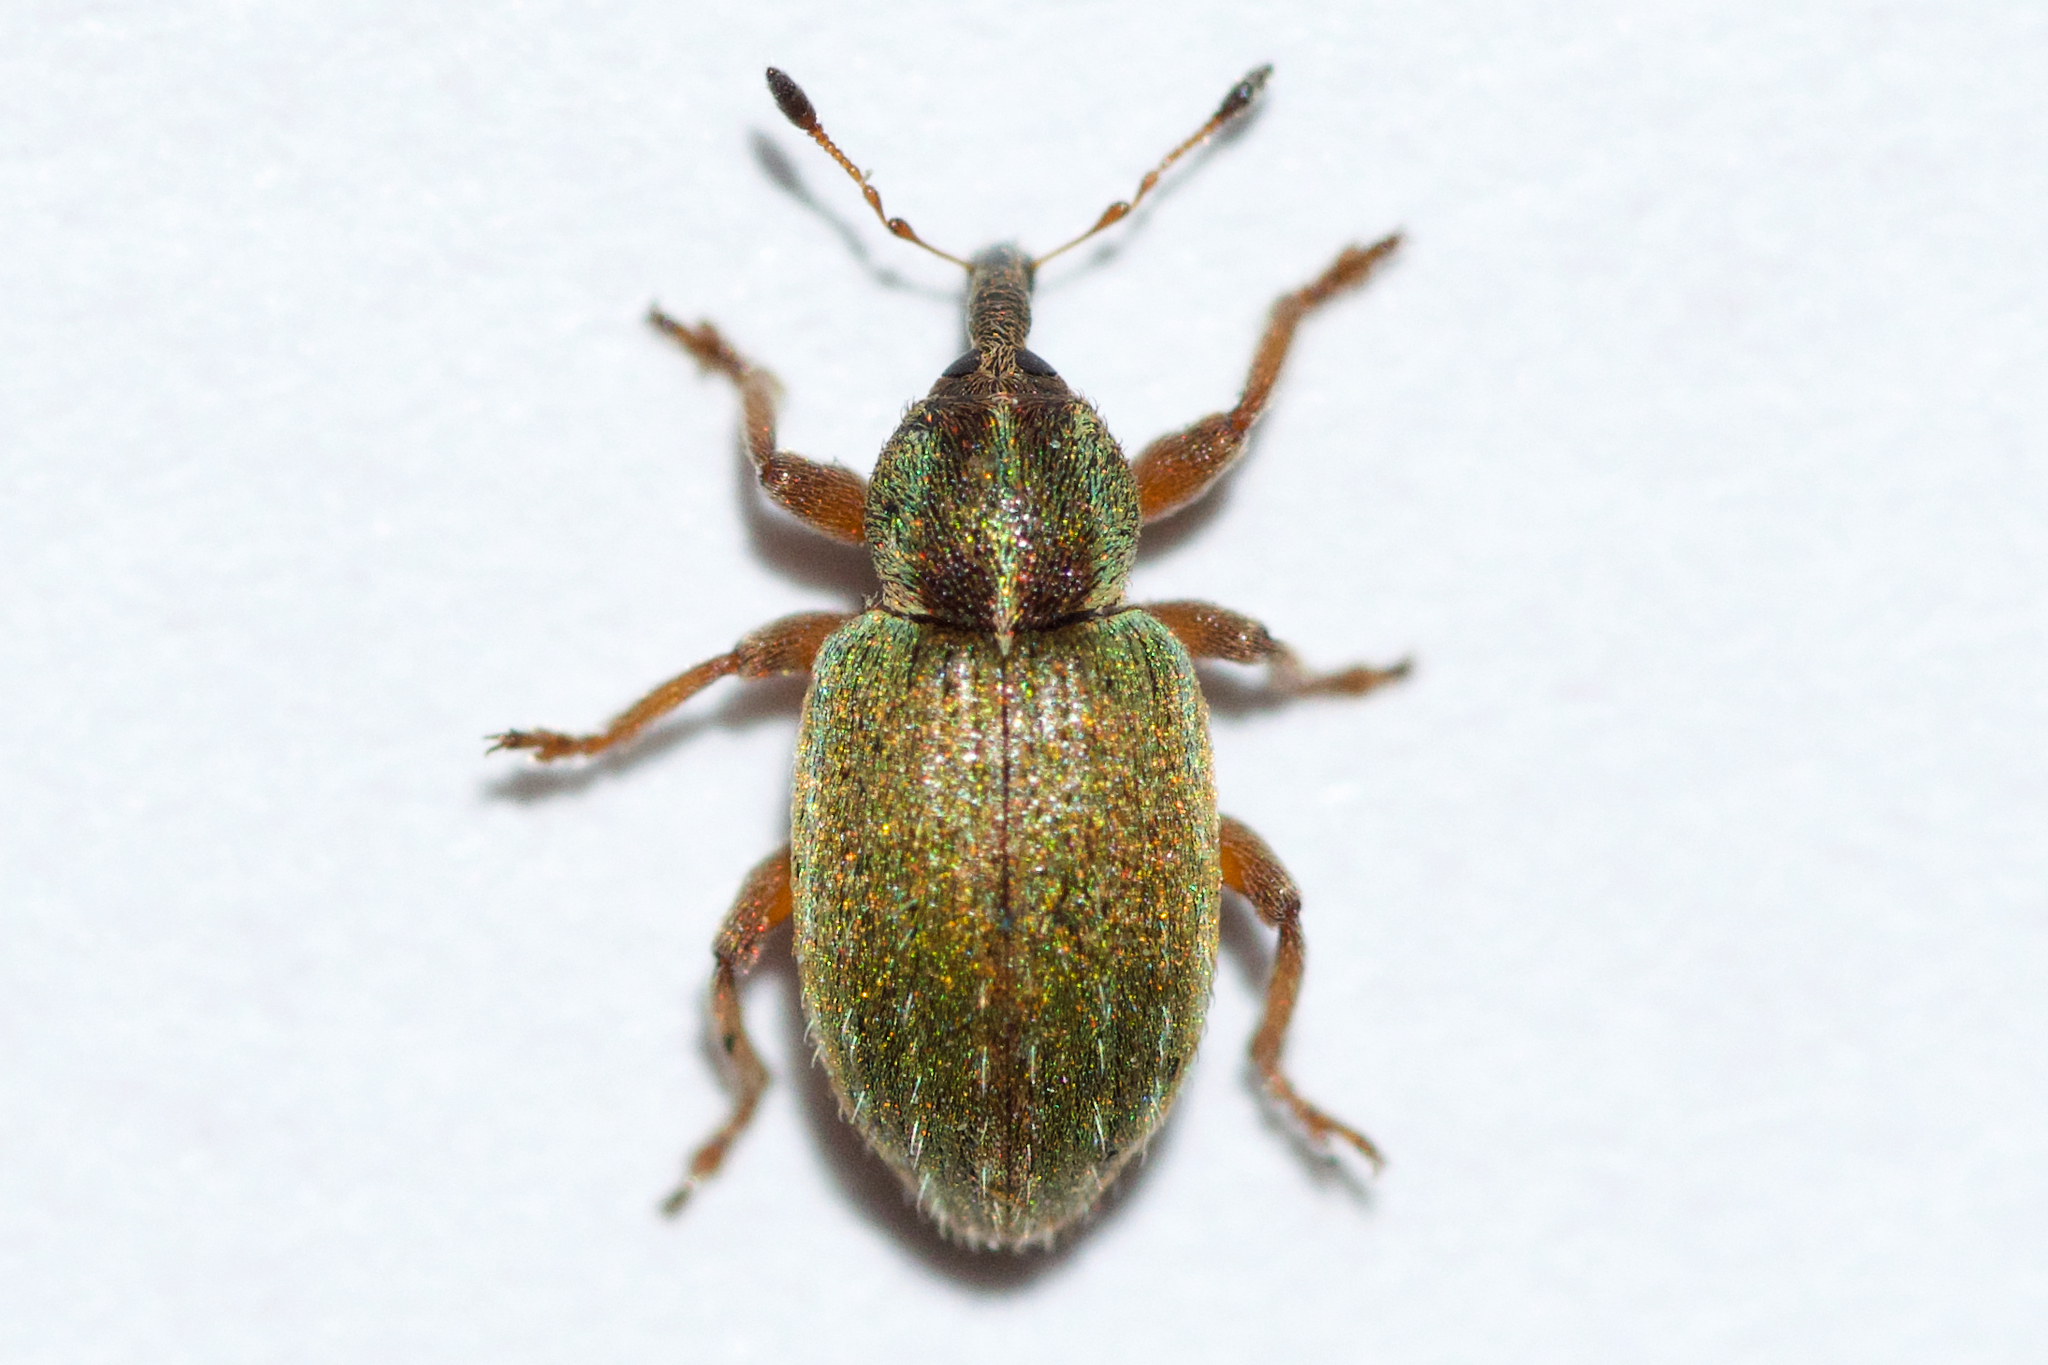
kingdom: Animalia
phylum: Arthropoda
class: Insecta
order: Coleoptera
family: Curculionidae
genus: Hypera
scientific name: Hypera nigrirostris
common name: Black-beaked green weevil
